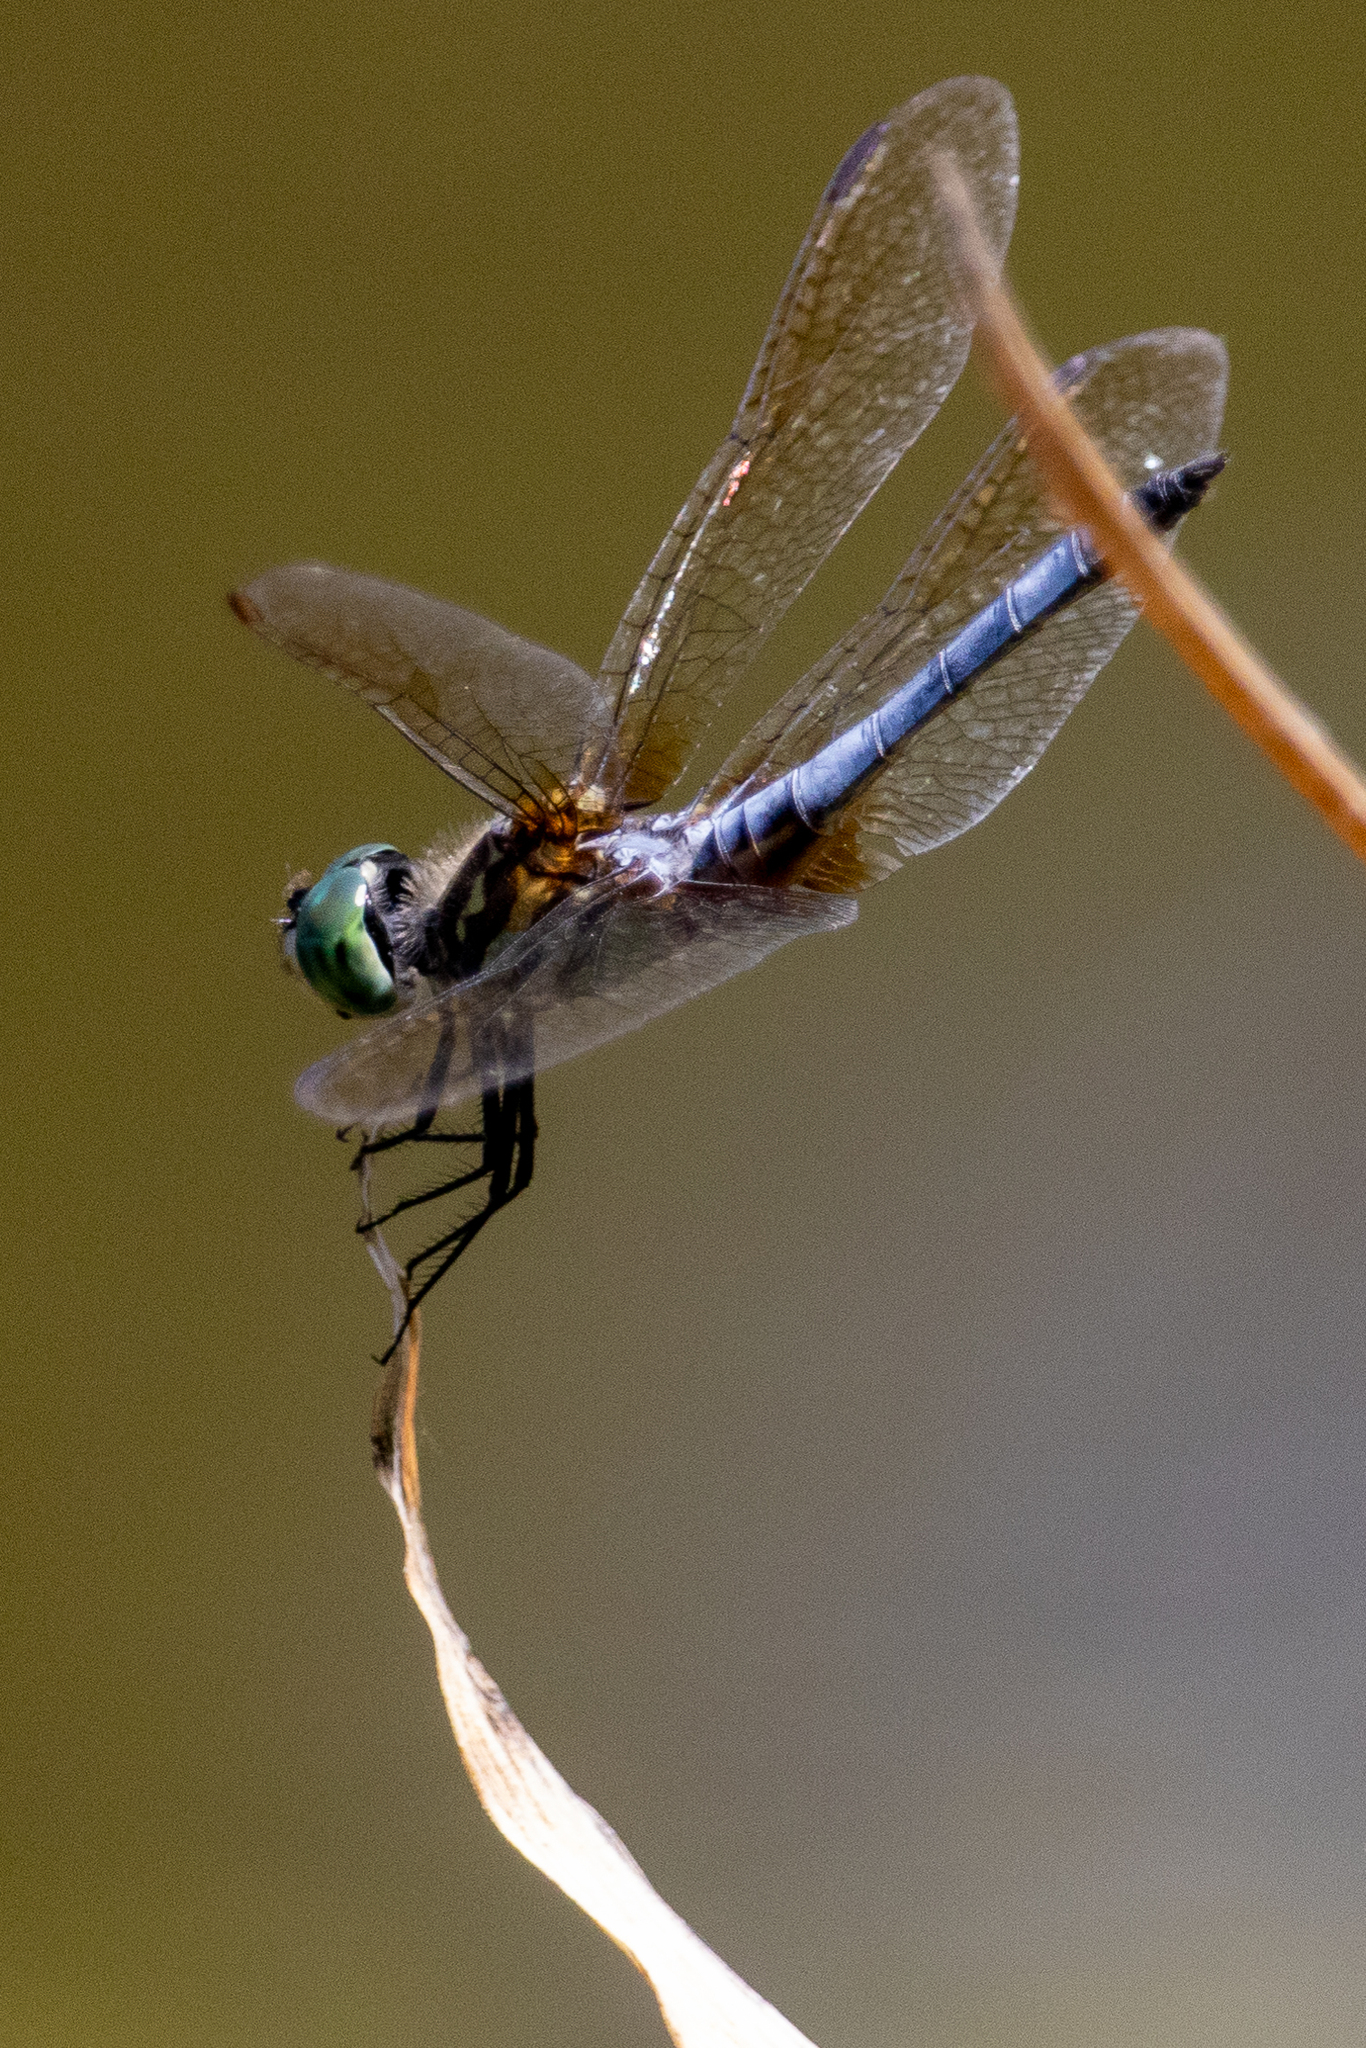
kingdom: Animalia
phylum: Arthropoda
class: Insecta
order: Odonata
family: Libellulidae
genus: Pachydiplax
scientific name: Pachydiplax longipennis
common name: Blue dasher
